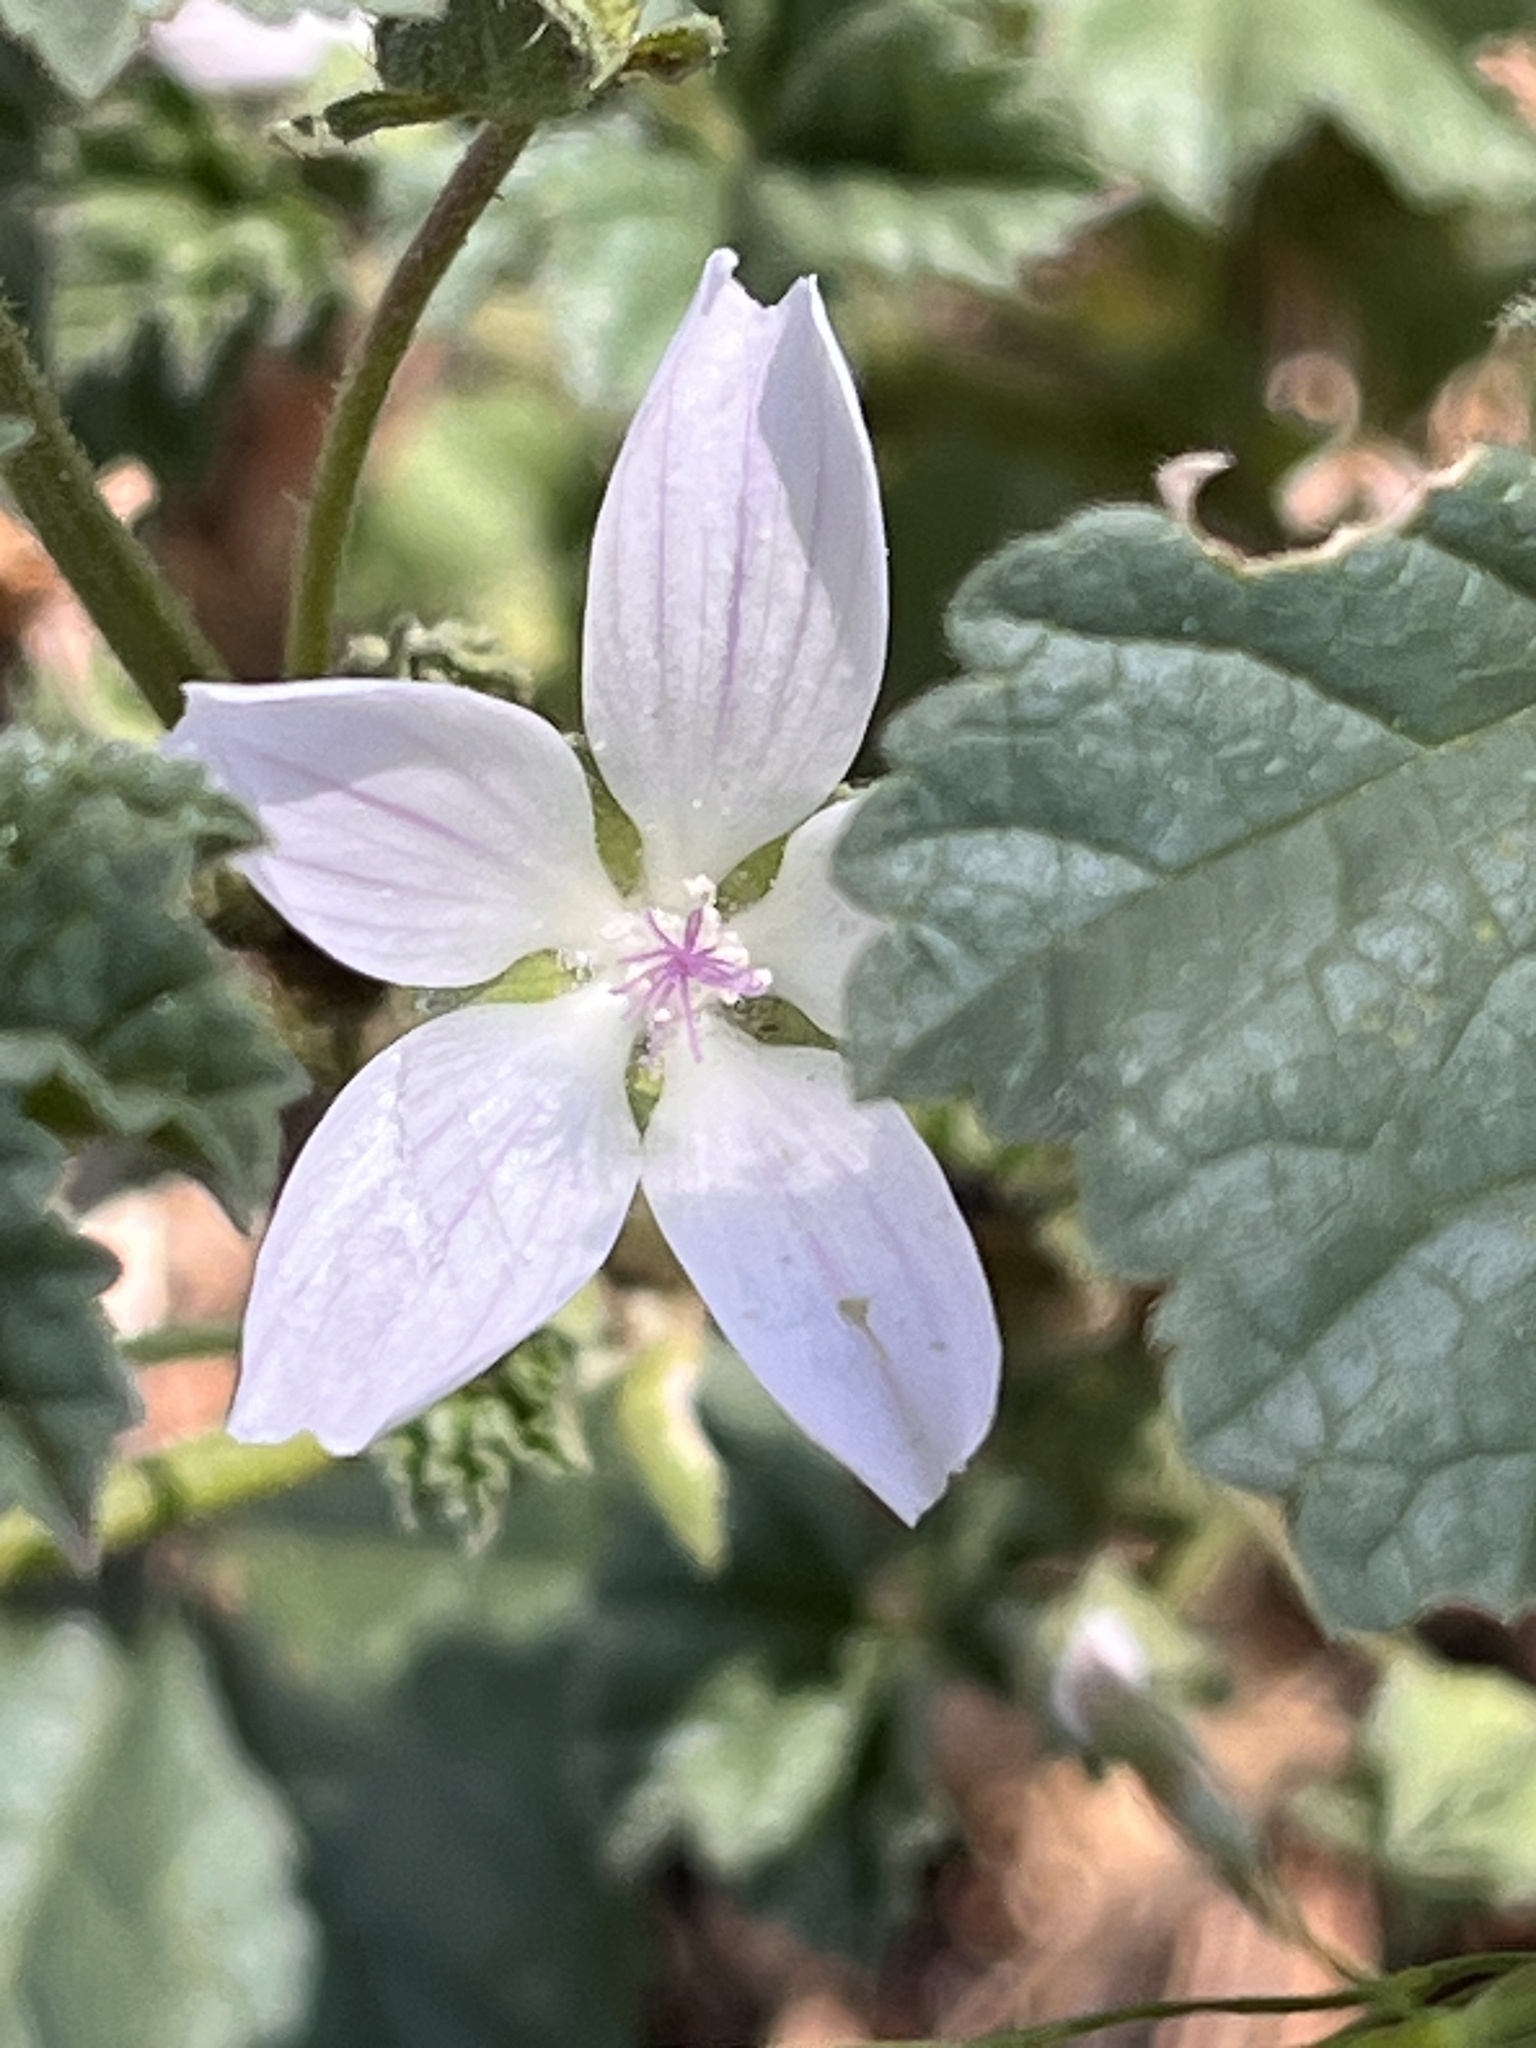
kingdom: Plantae
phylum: Tracheophyta
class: Magnoliopsida
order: Malvales
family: Malvaceae
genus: Malva
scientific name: Malva neglecta
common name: Common mallow
